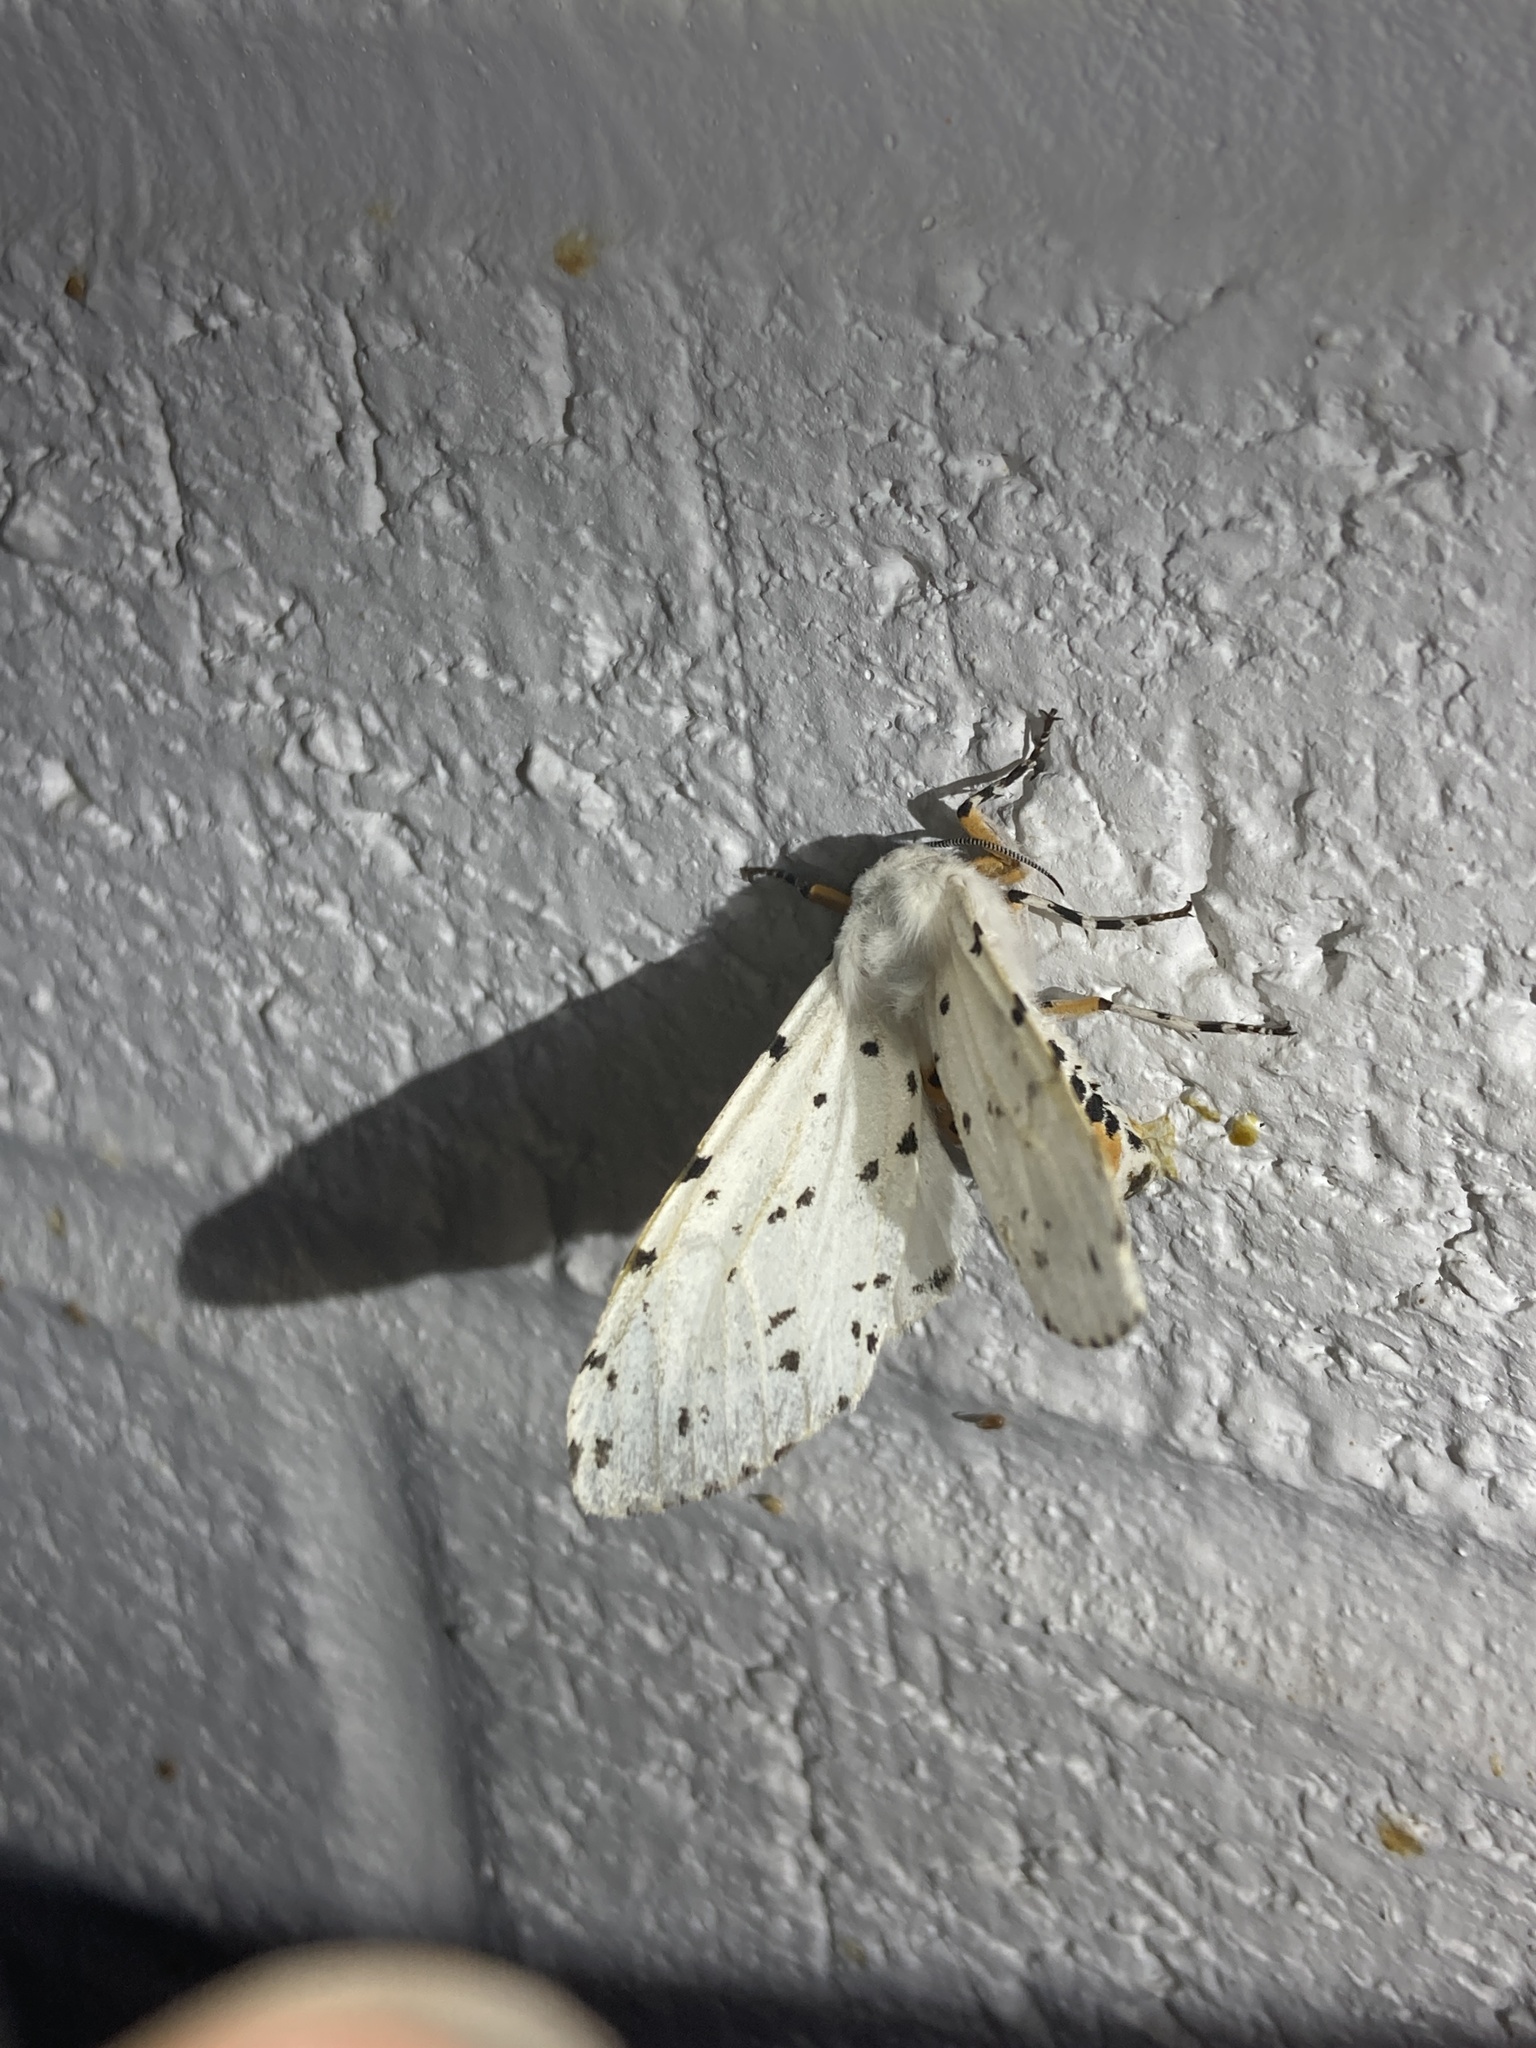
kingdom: Animalia
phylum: Arthropoda
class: Insecta
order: Lepidoptera
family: Erebidae
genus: Estigmene
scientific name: Estigmene acrea
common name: Salt marsh moth
